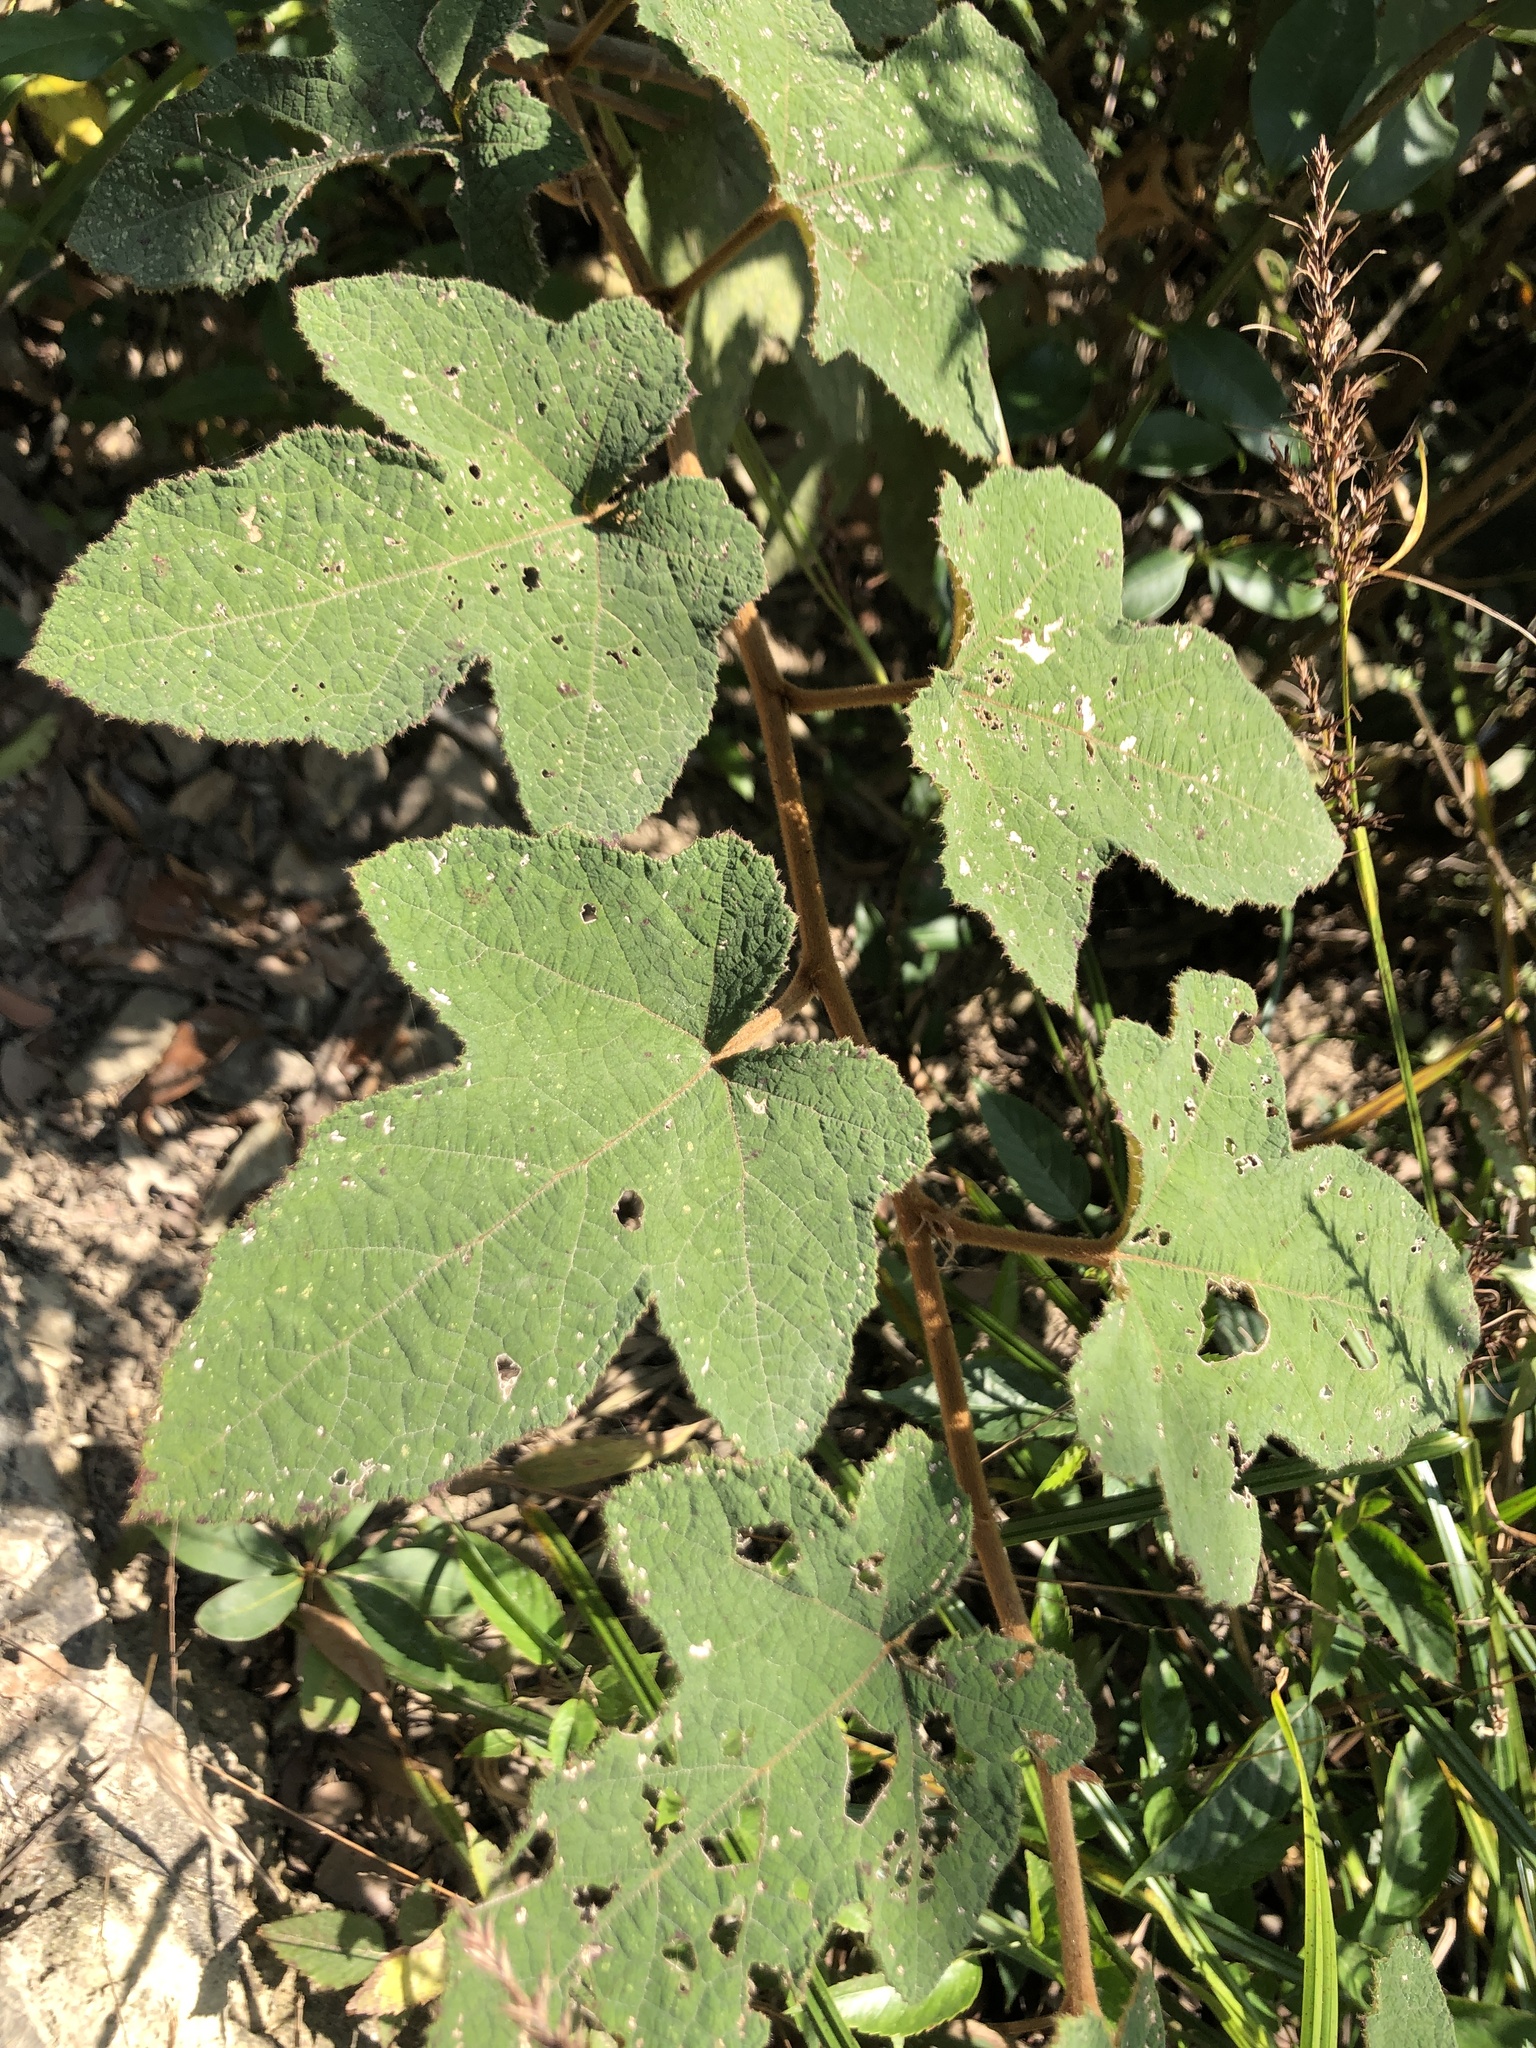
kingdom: Plantae
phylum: Tracheophyta
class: Magnoliopsida
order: Rosales
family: Rosaceae
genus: Rubus
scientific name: Rubus reflexus
